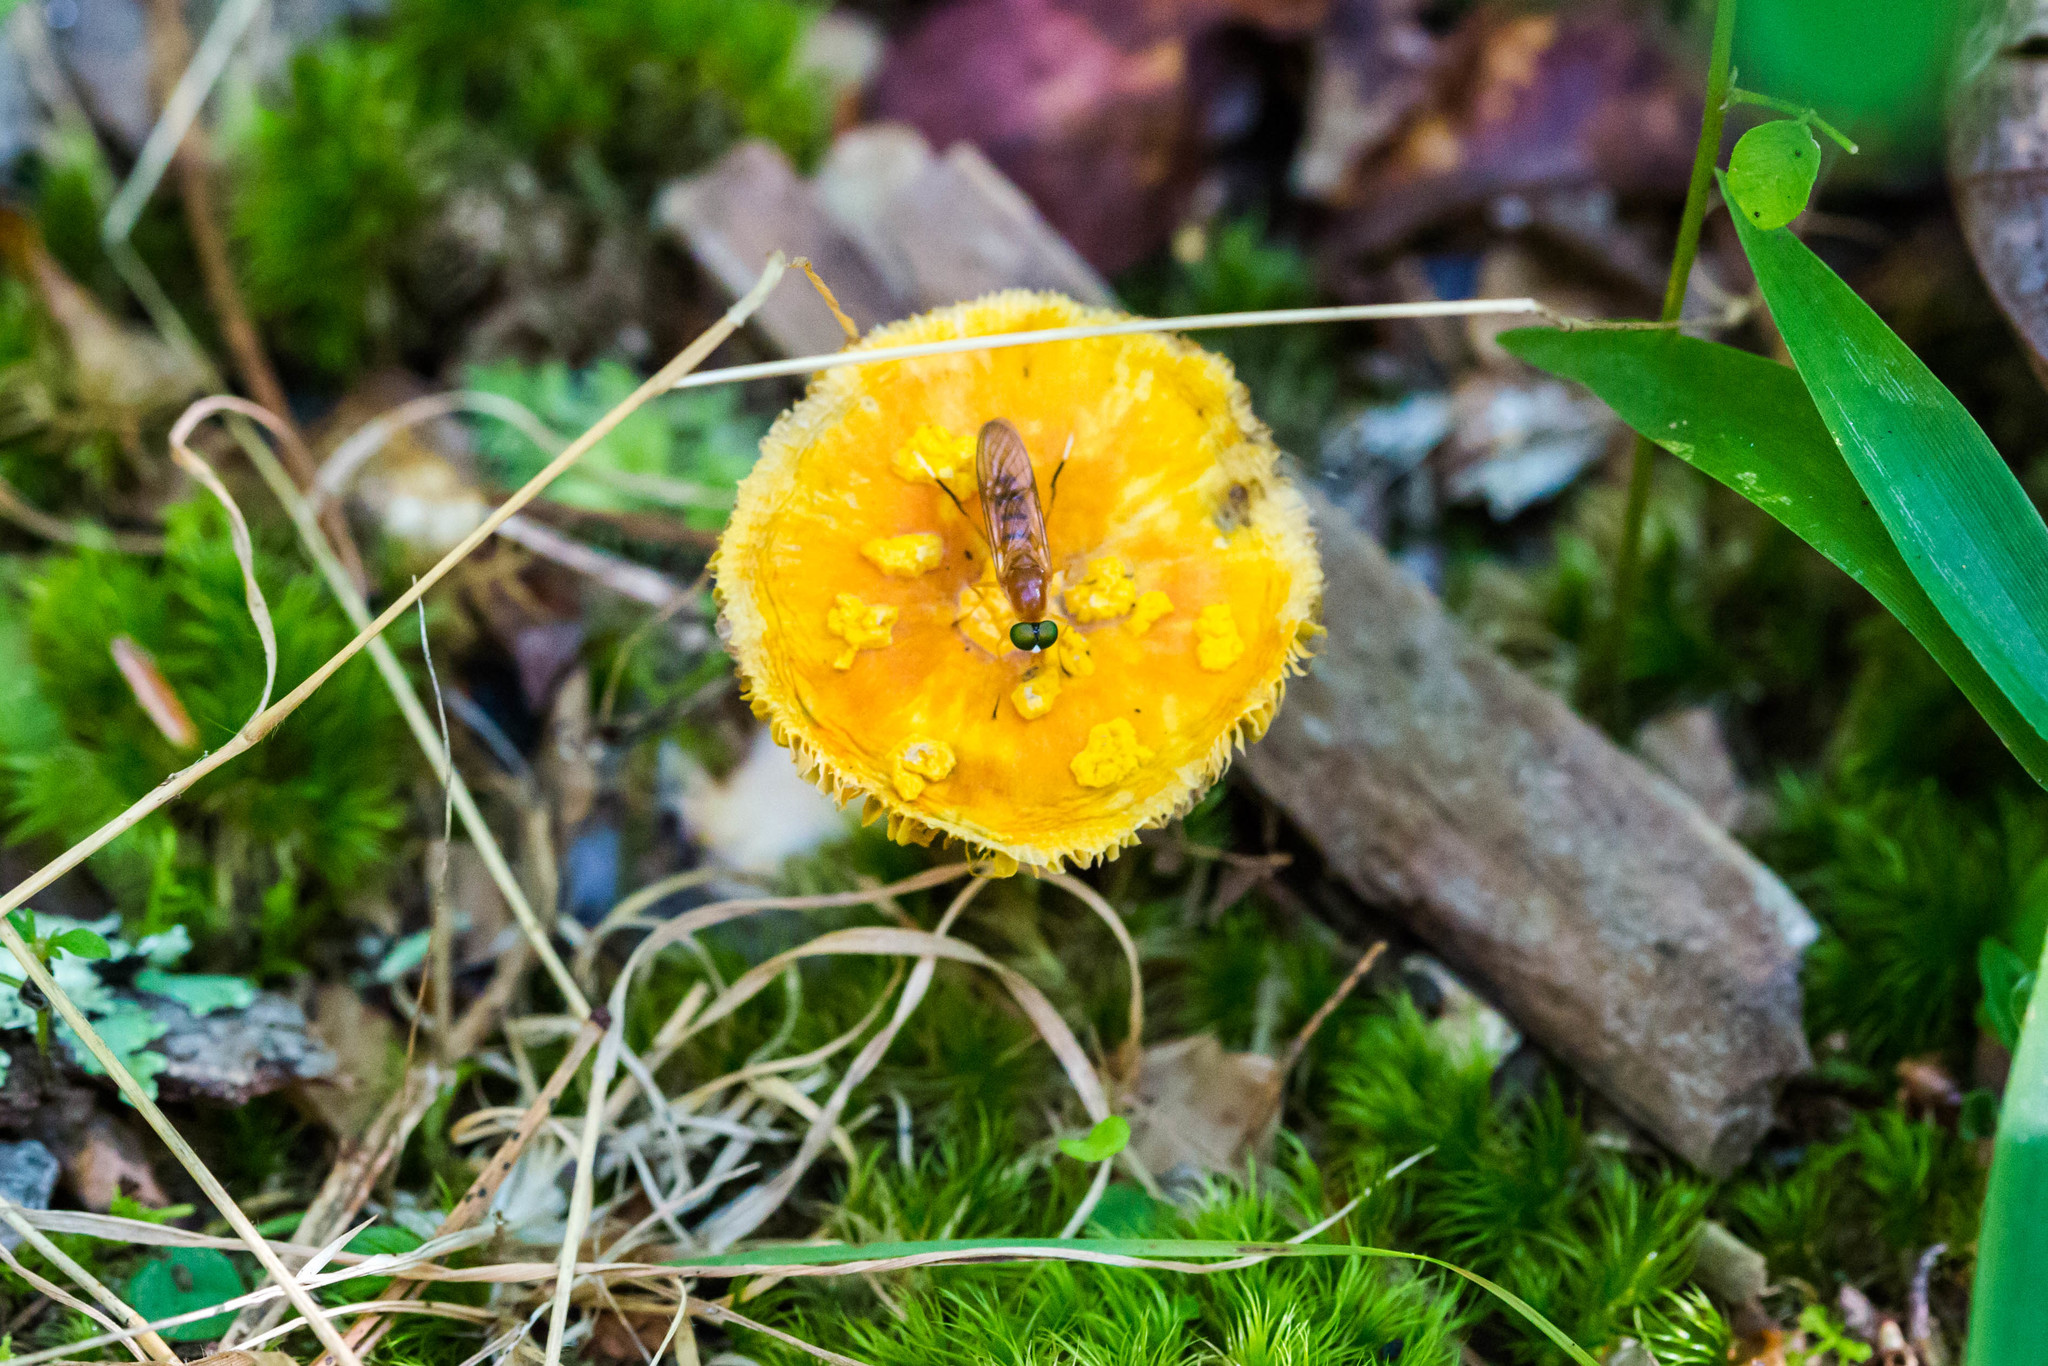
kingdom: Animalia
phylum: Arthropoda
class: Insecta
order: Diptera
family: Stratiomyidae
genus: Ptecticus
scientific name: Ptecticus sackenii
